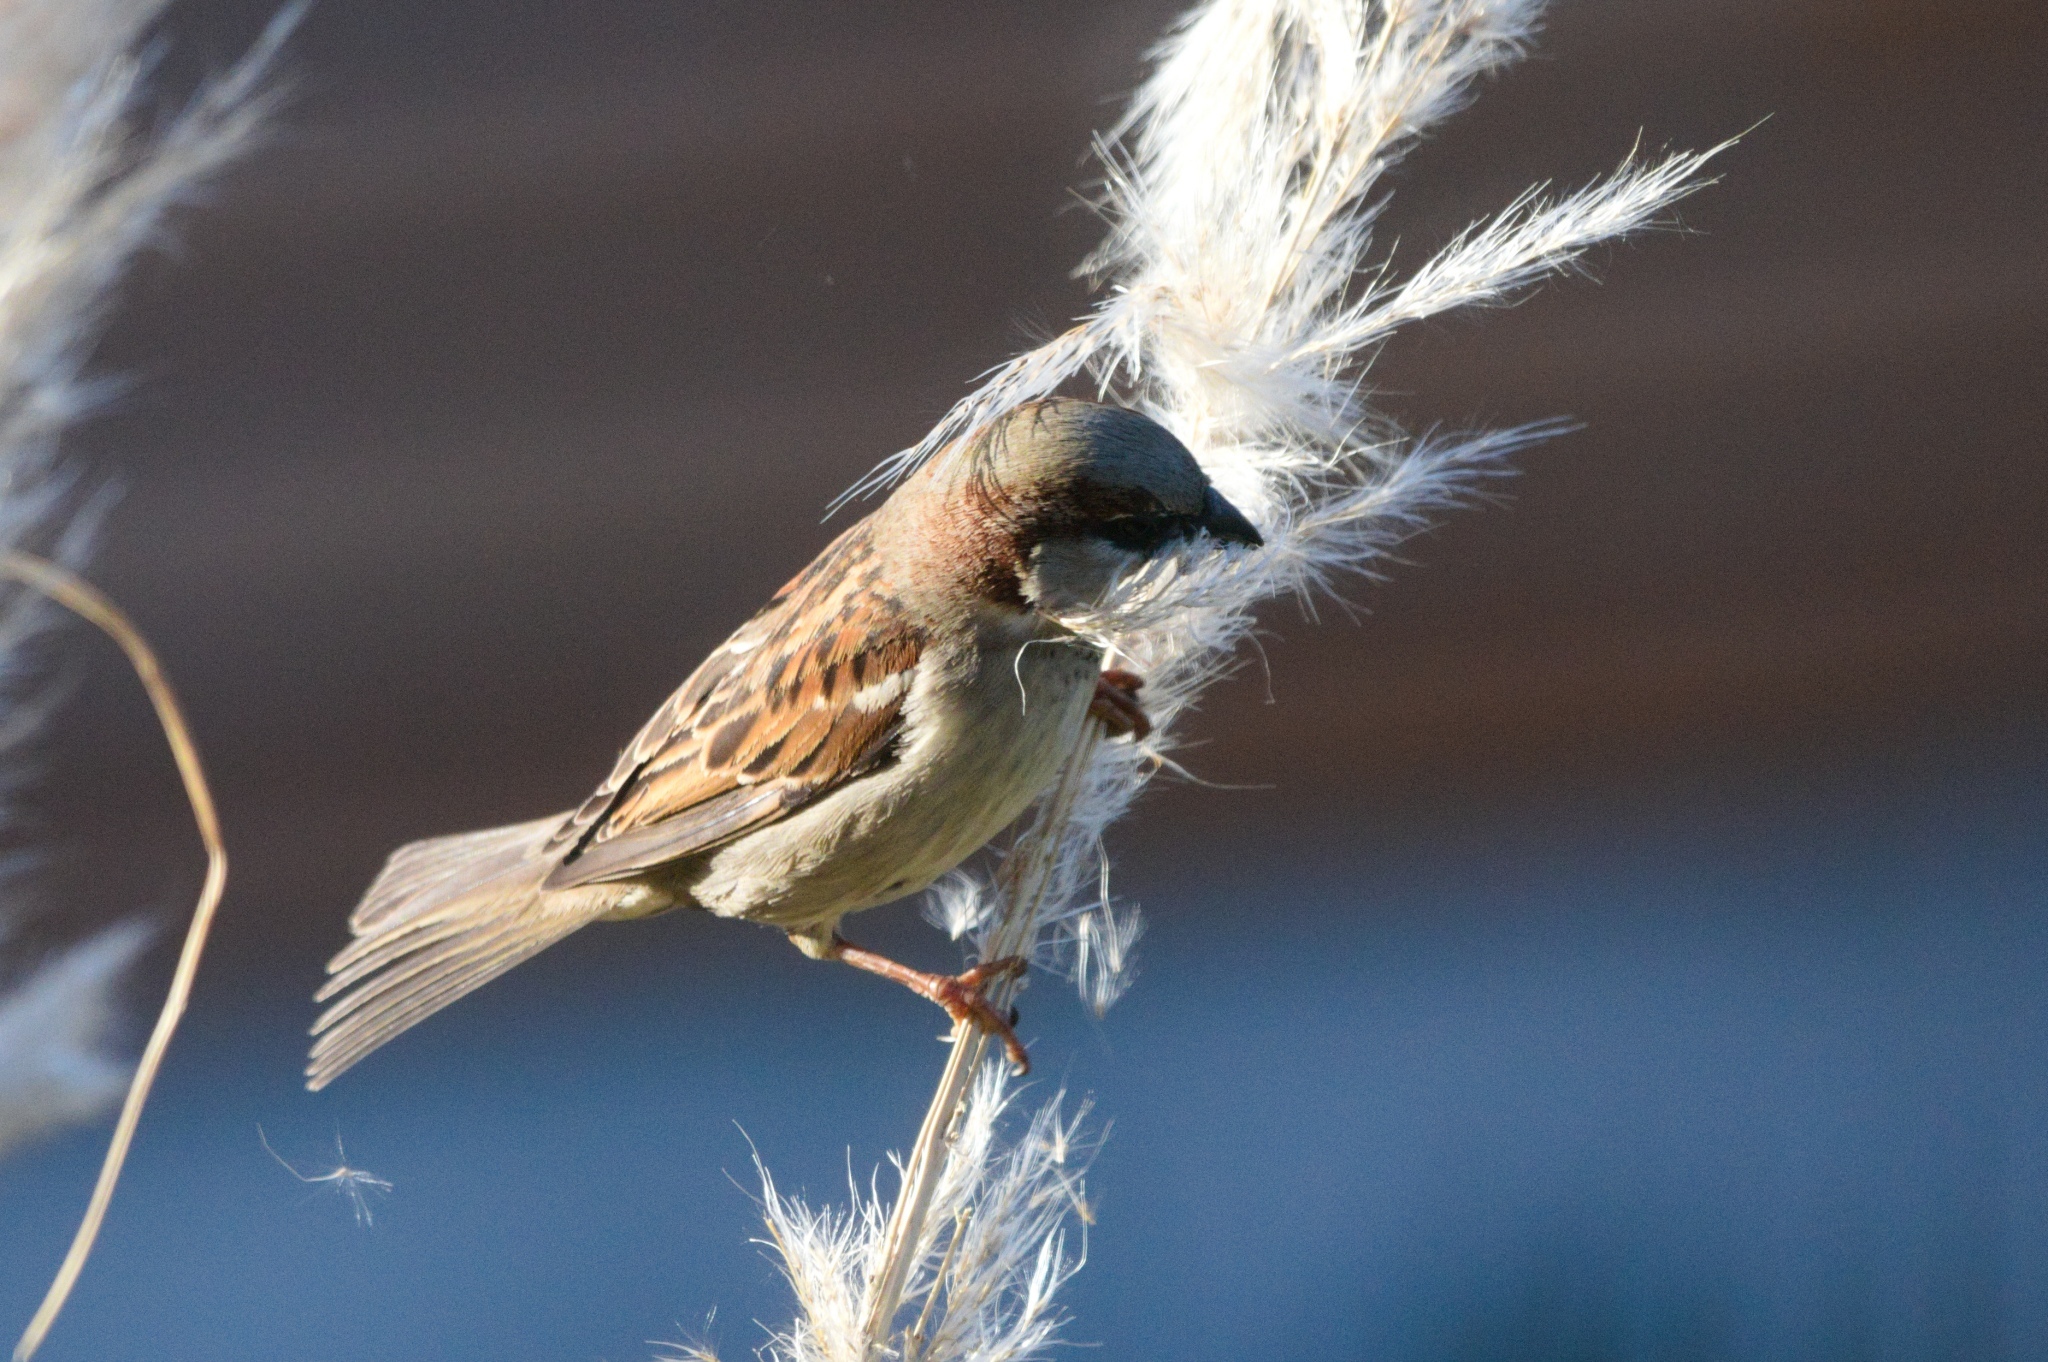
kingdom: Animalia
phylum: Chordata
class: Aves
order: Passeriformes
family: Passeridae
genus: Passer
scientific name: Passer domesticus
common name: House sparrow
